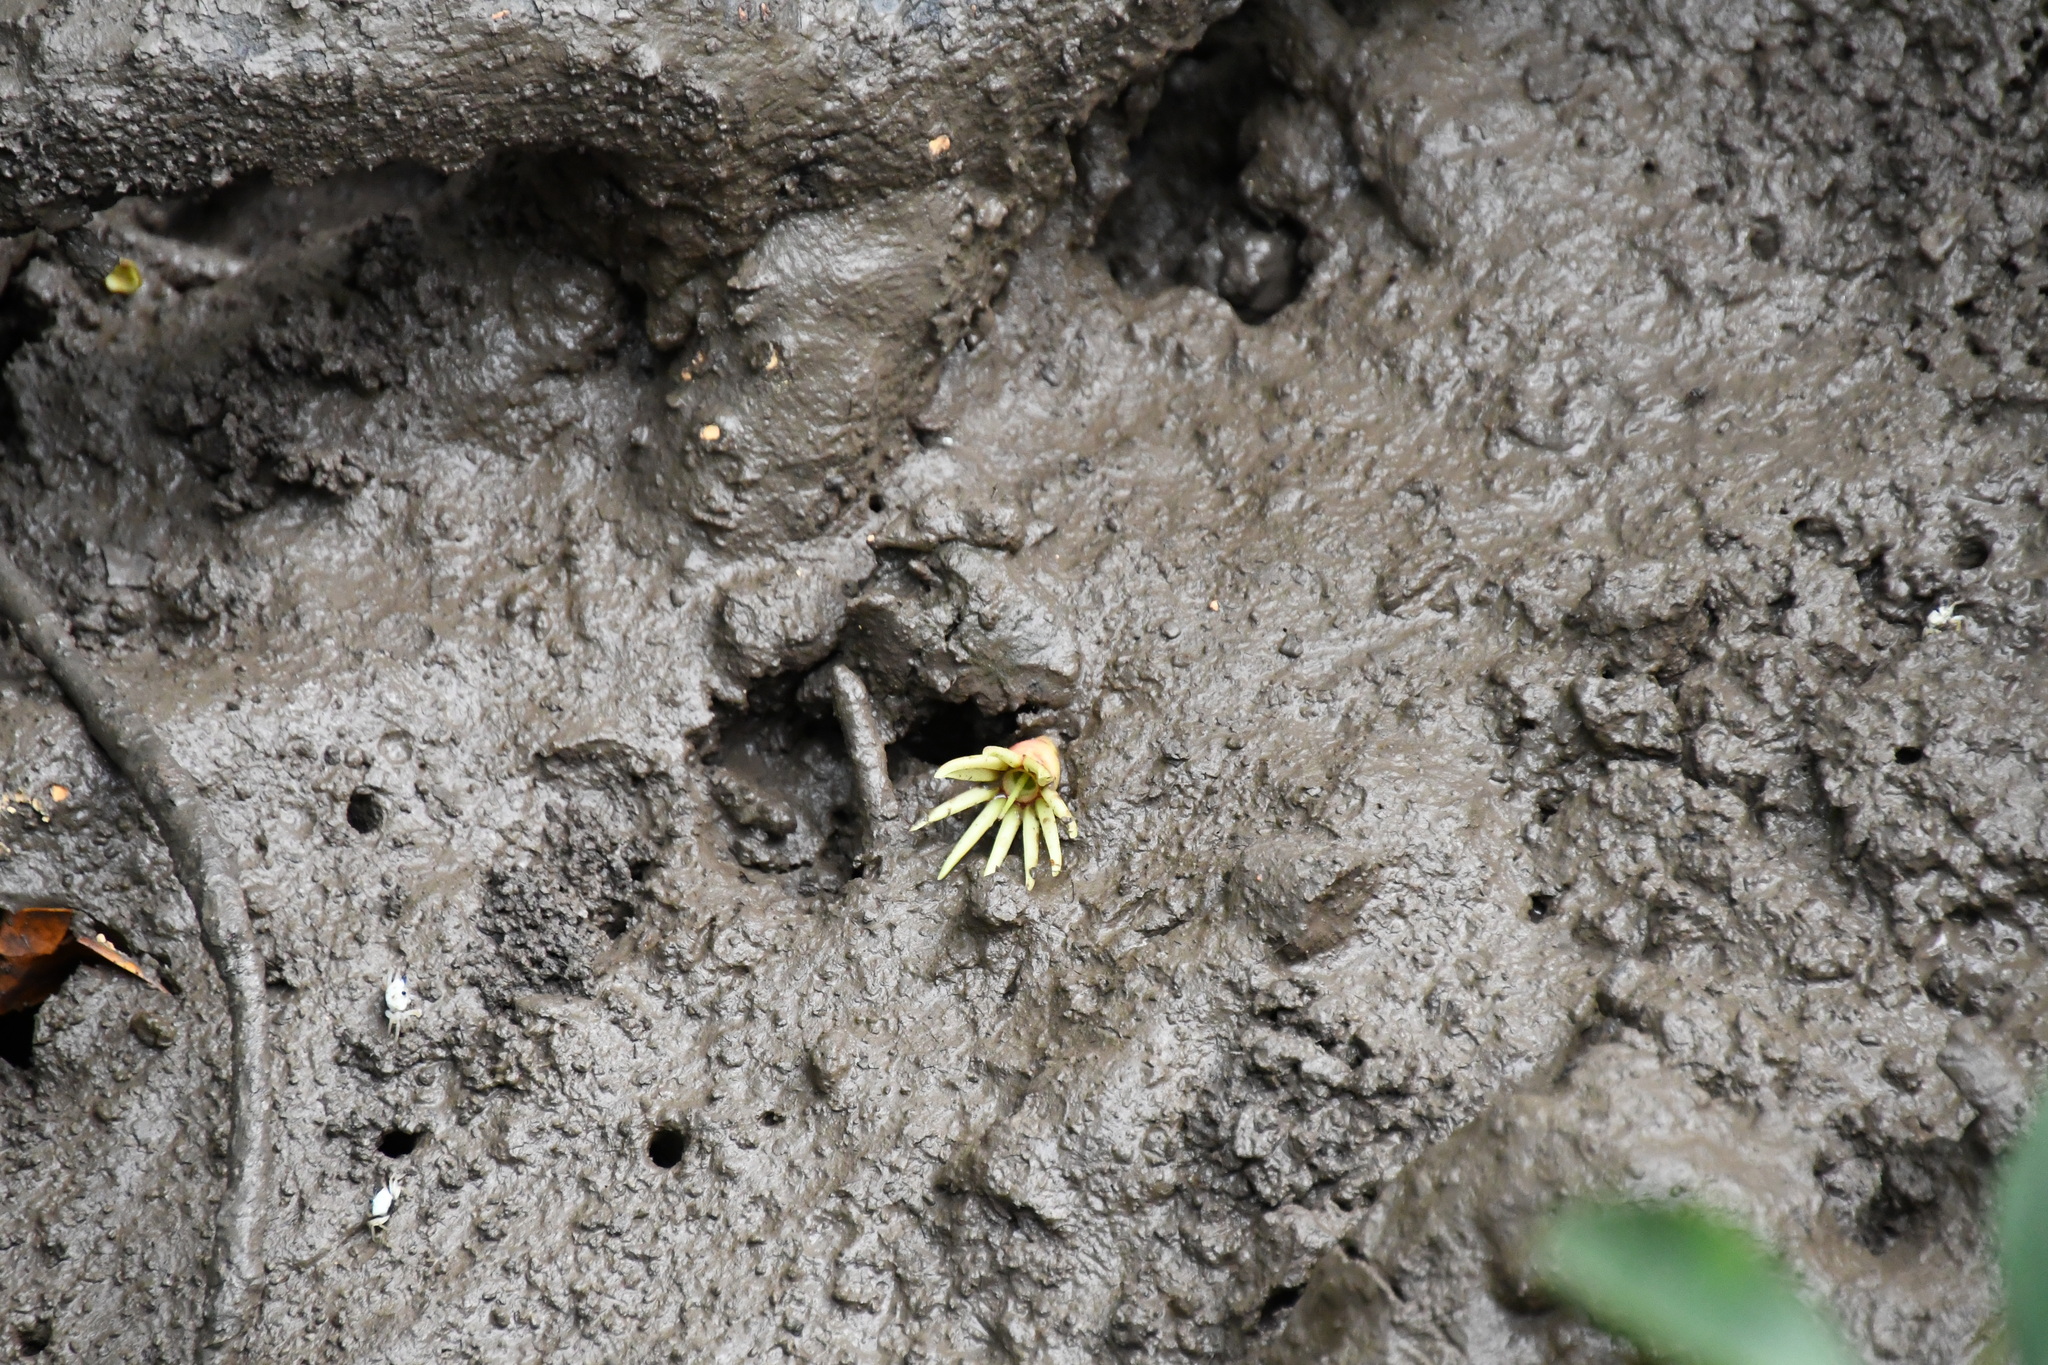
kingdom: Plantae
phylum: Tracheophyta
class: Magnoliopsida
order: Malpighiales
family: Rhizophoraceae
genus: Bruguiera
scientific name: Bruguiera gymnorhiza
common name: Oriental mangrove
